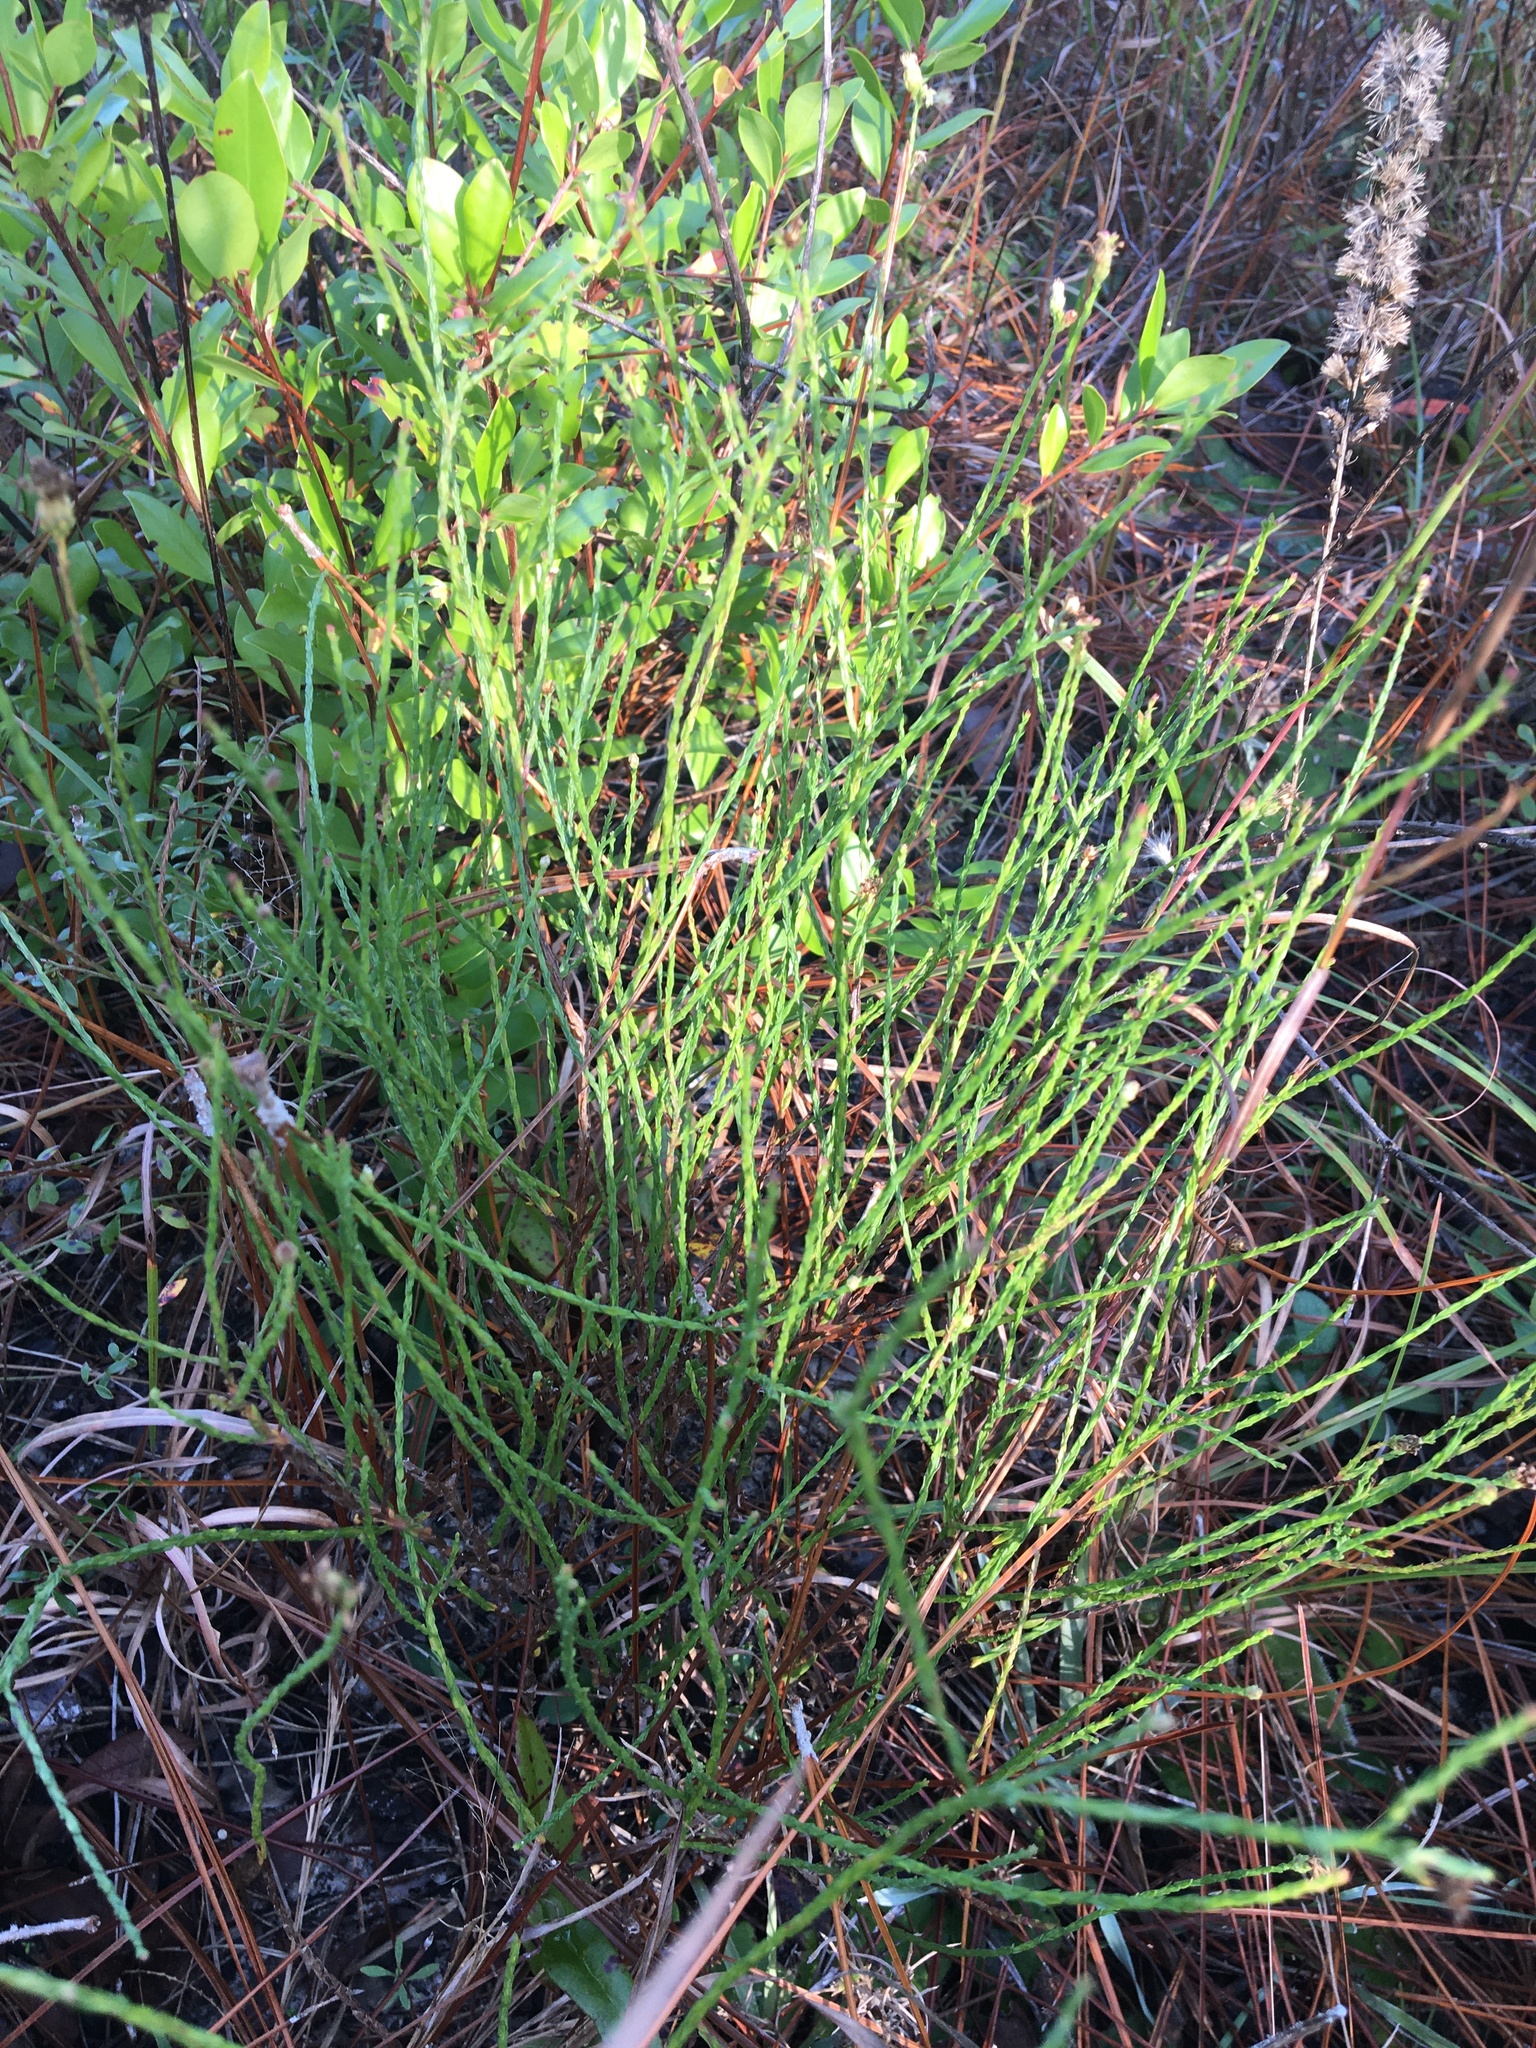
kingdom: Plantae
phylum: Tracheophyta
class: Magnoliopsida
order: Asterales
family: Asteraceae
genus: Symphyotrichum
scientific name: Symphyotrichum adnatum
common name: Scale-leaf aster
